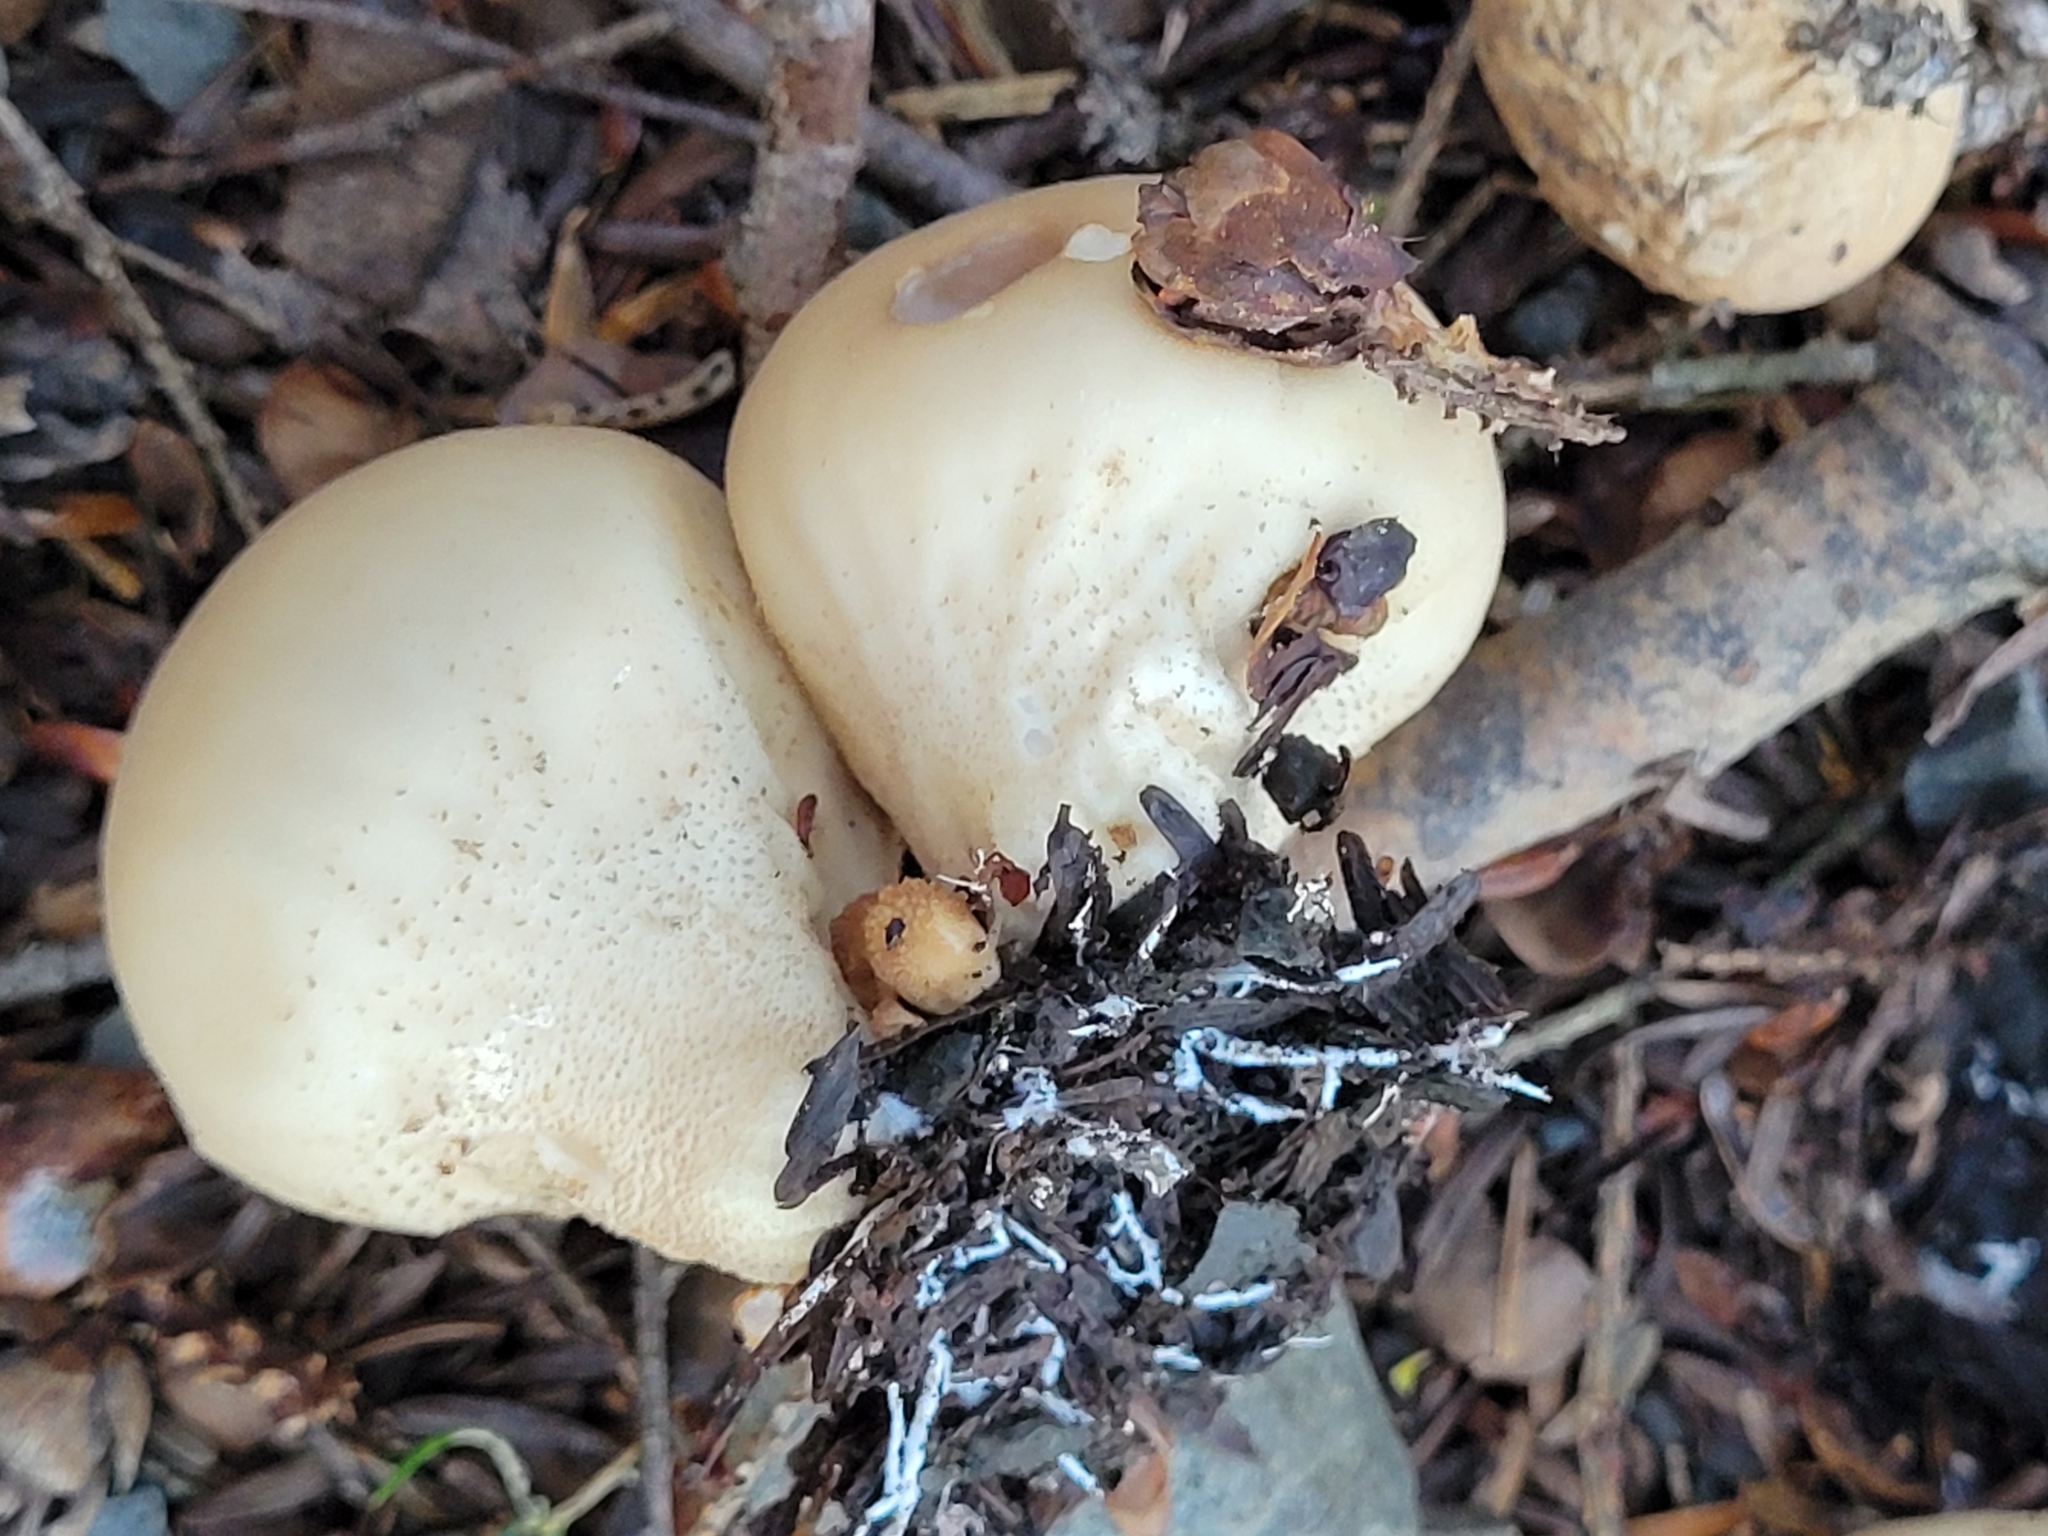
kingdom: Fungi
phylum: Basidiomycota
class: Agaricomycetes
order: Agaricales
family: Lycoperdaceae
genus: Apioperdon
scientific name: Apioperdon pyriforme
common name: Pear-shaped puffball
